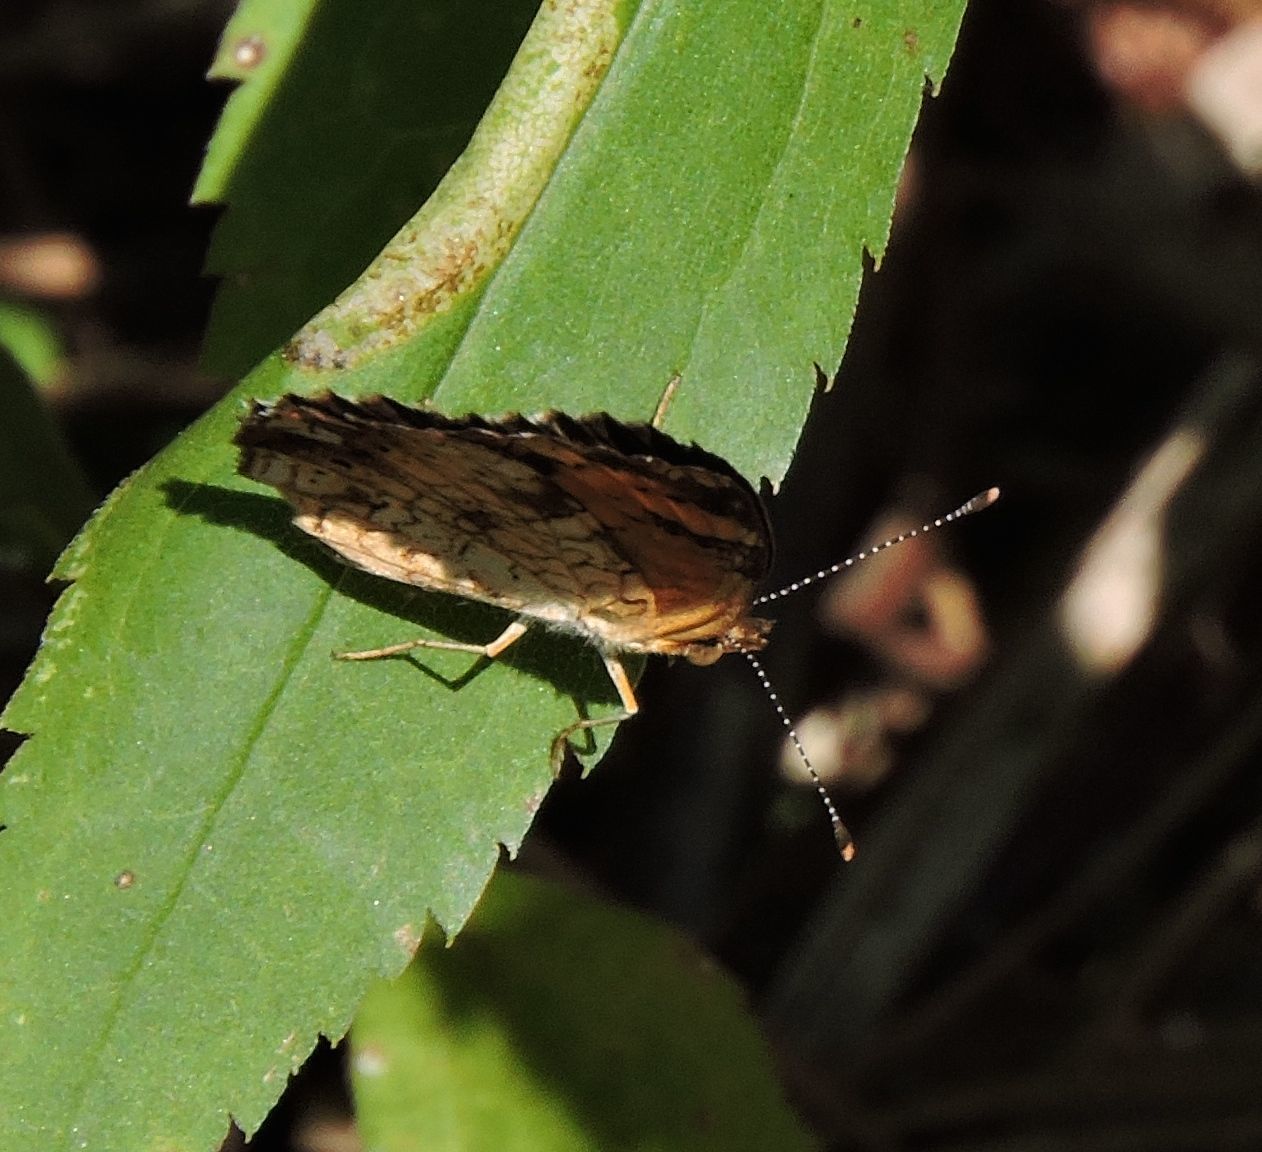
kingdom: Animalia
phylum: Arthropoda
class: Insecta
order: Lepidoptera
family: Nymphalidae
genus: Phyciodes
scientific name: Phyciodes tharos
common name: Pearl crescent
